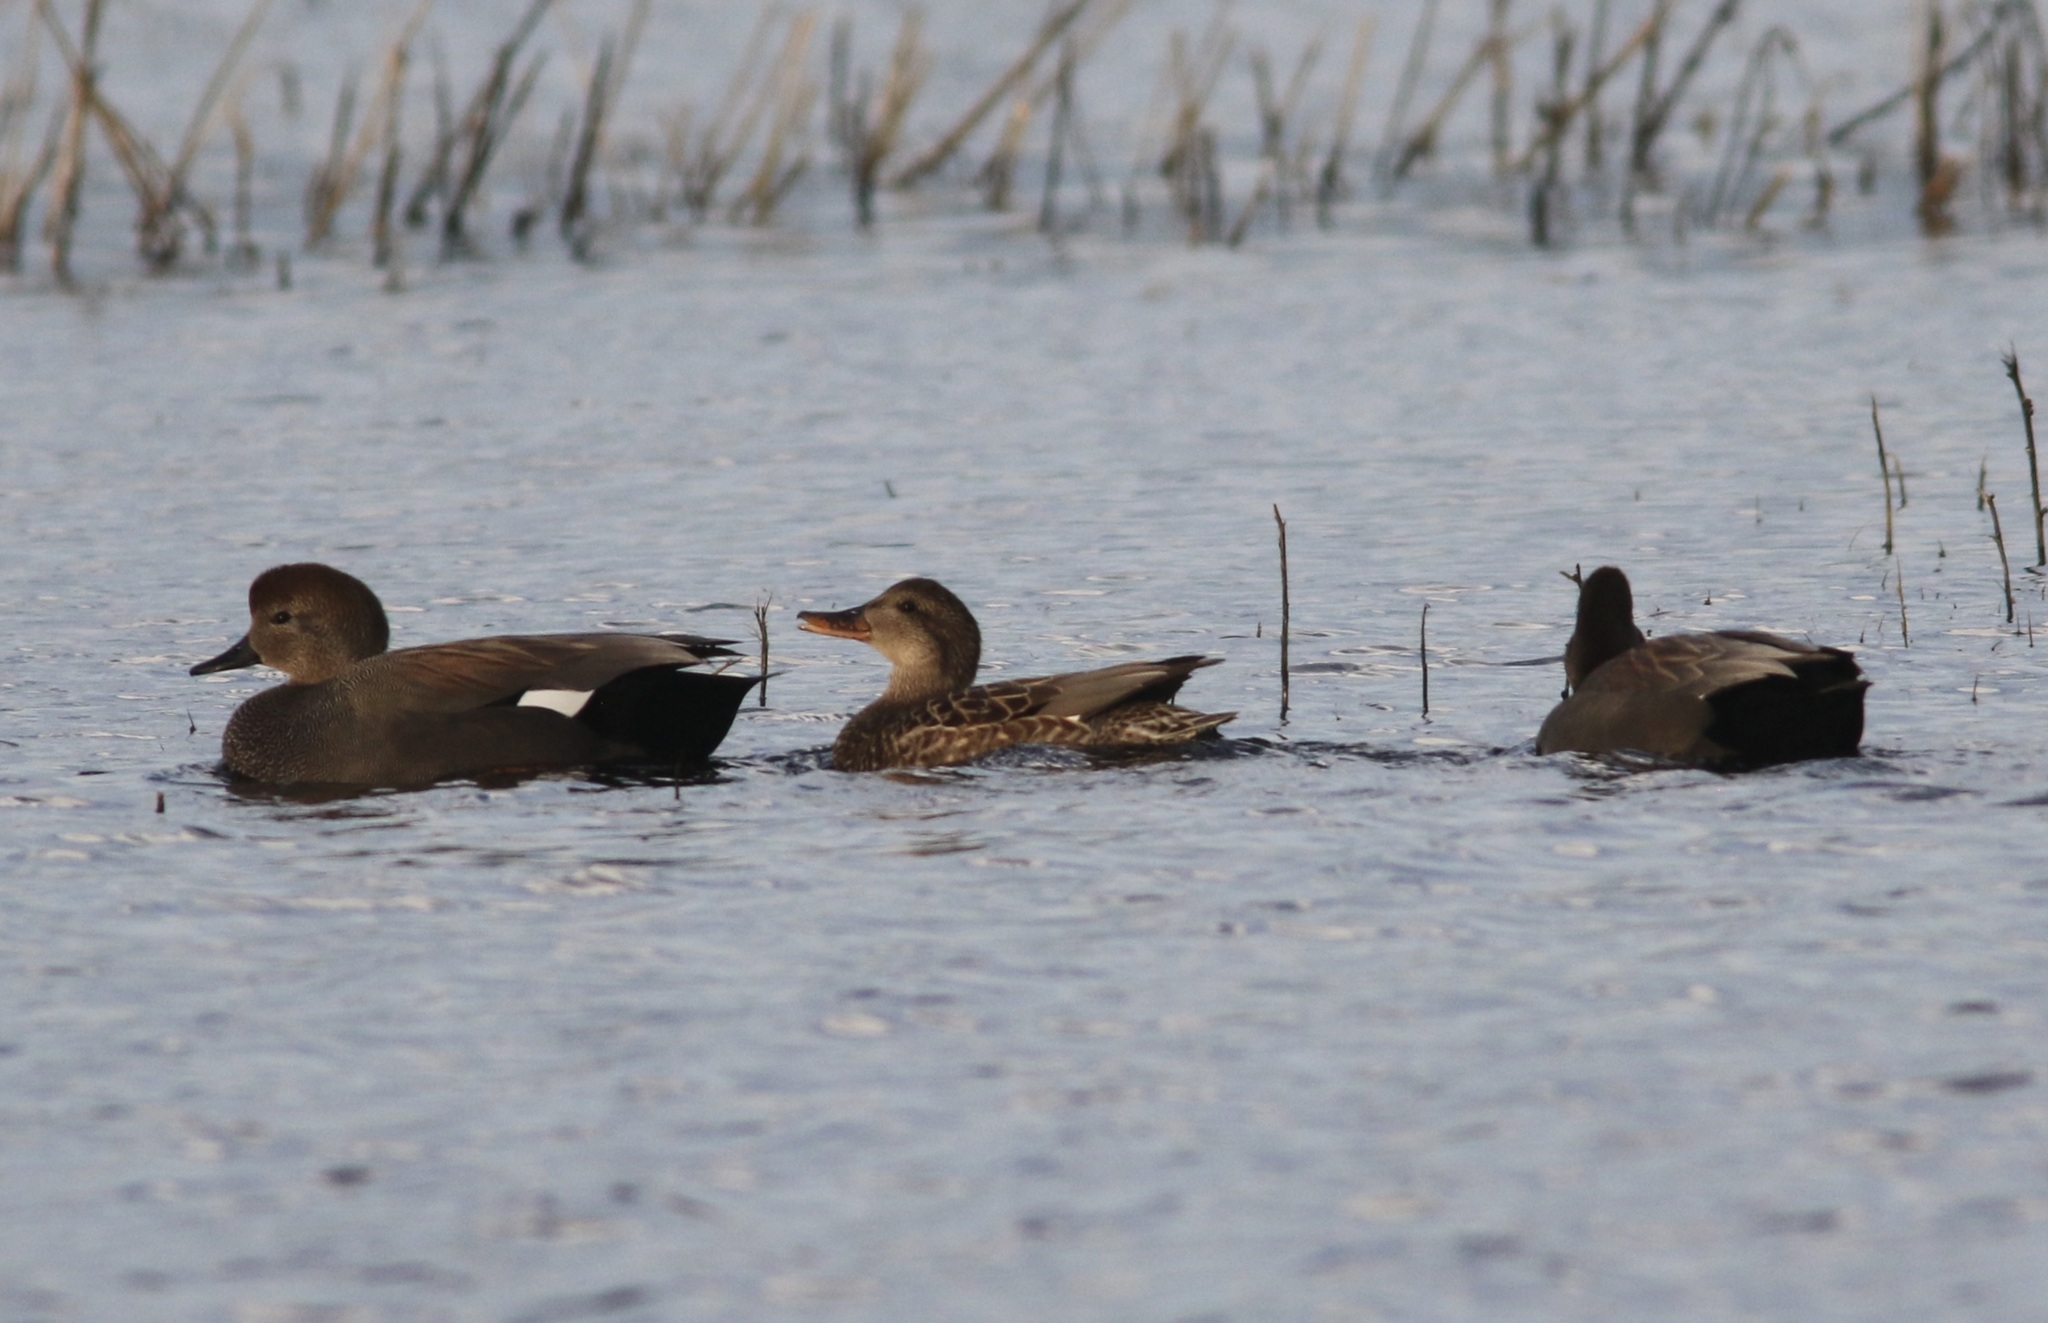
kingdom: Animalia
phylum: Chordata
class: Aves
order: Anseriformes
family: Anatidae
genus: Mareca
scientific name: Mareca strepera
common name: Gadwall
